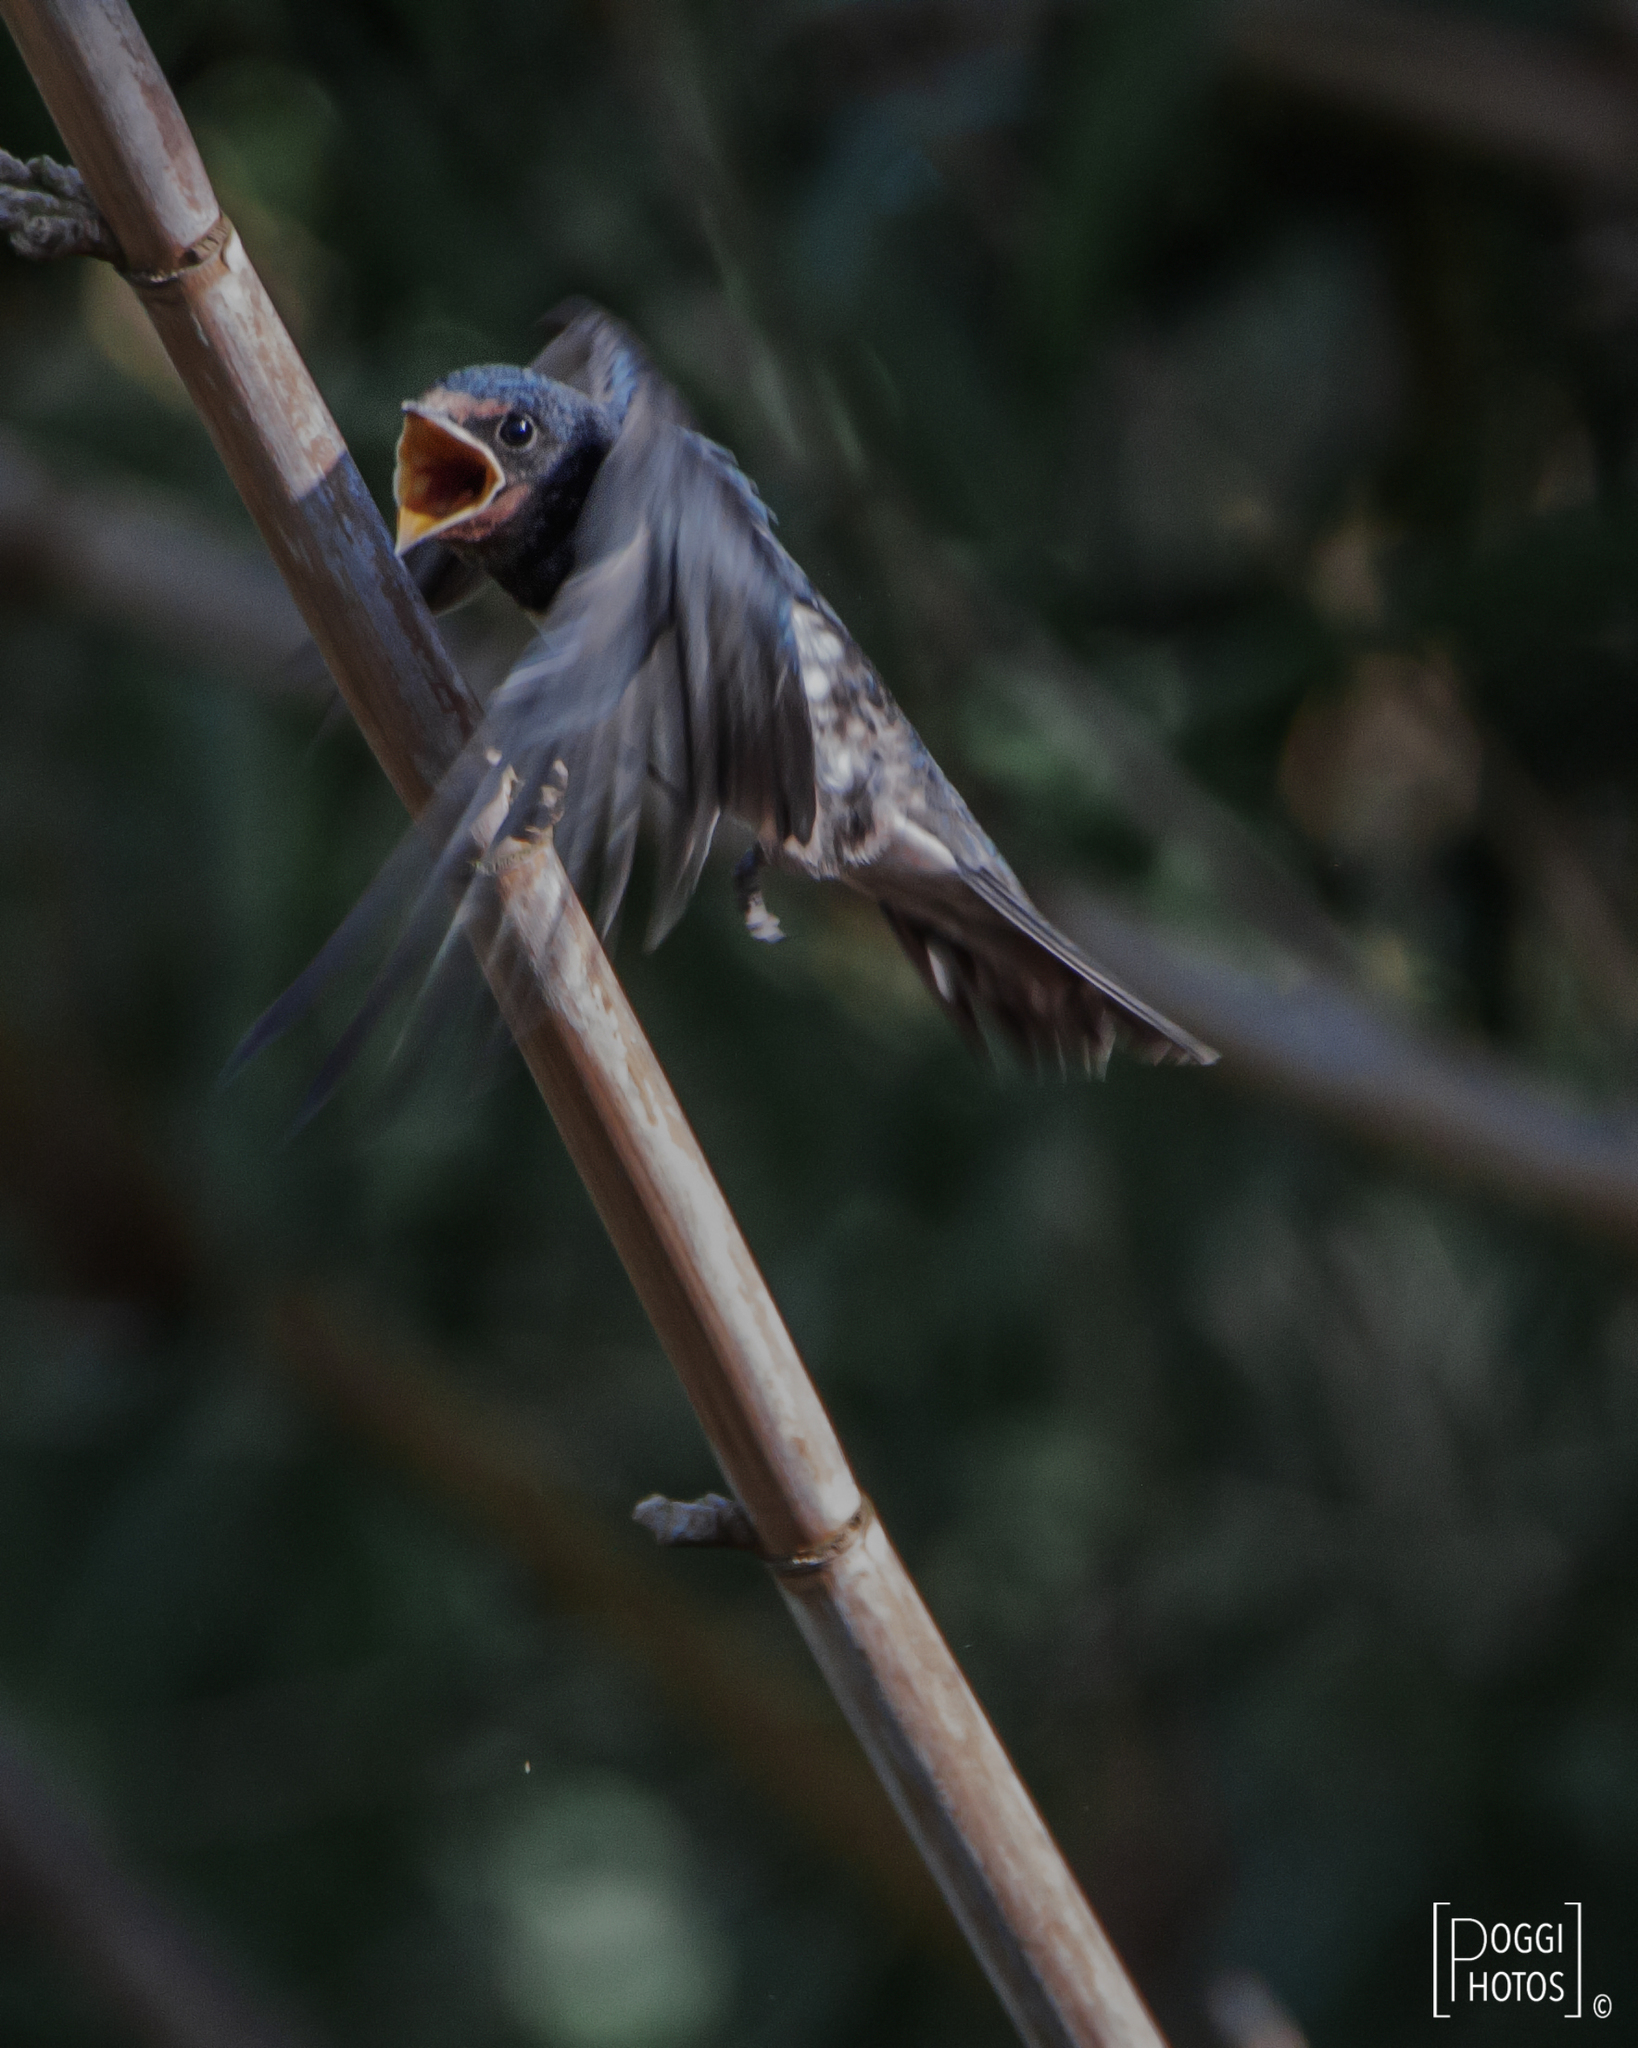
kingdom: Animalia
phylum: Chordata
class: Aves
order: Passeriformes
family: Hirundinidae
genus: Hirundo
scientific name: Hirundo rustica
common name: Barn swallow
